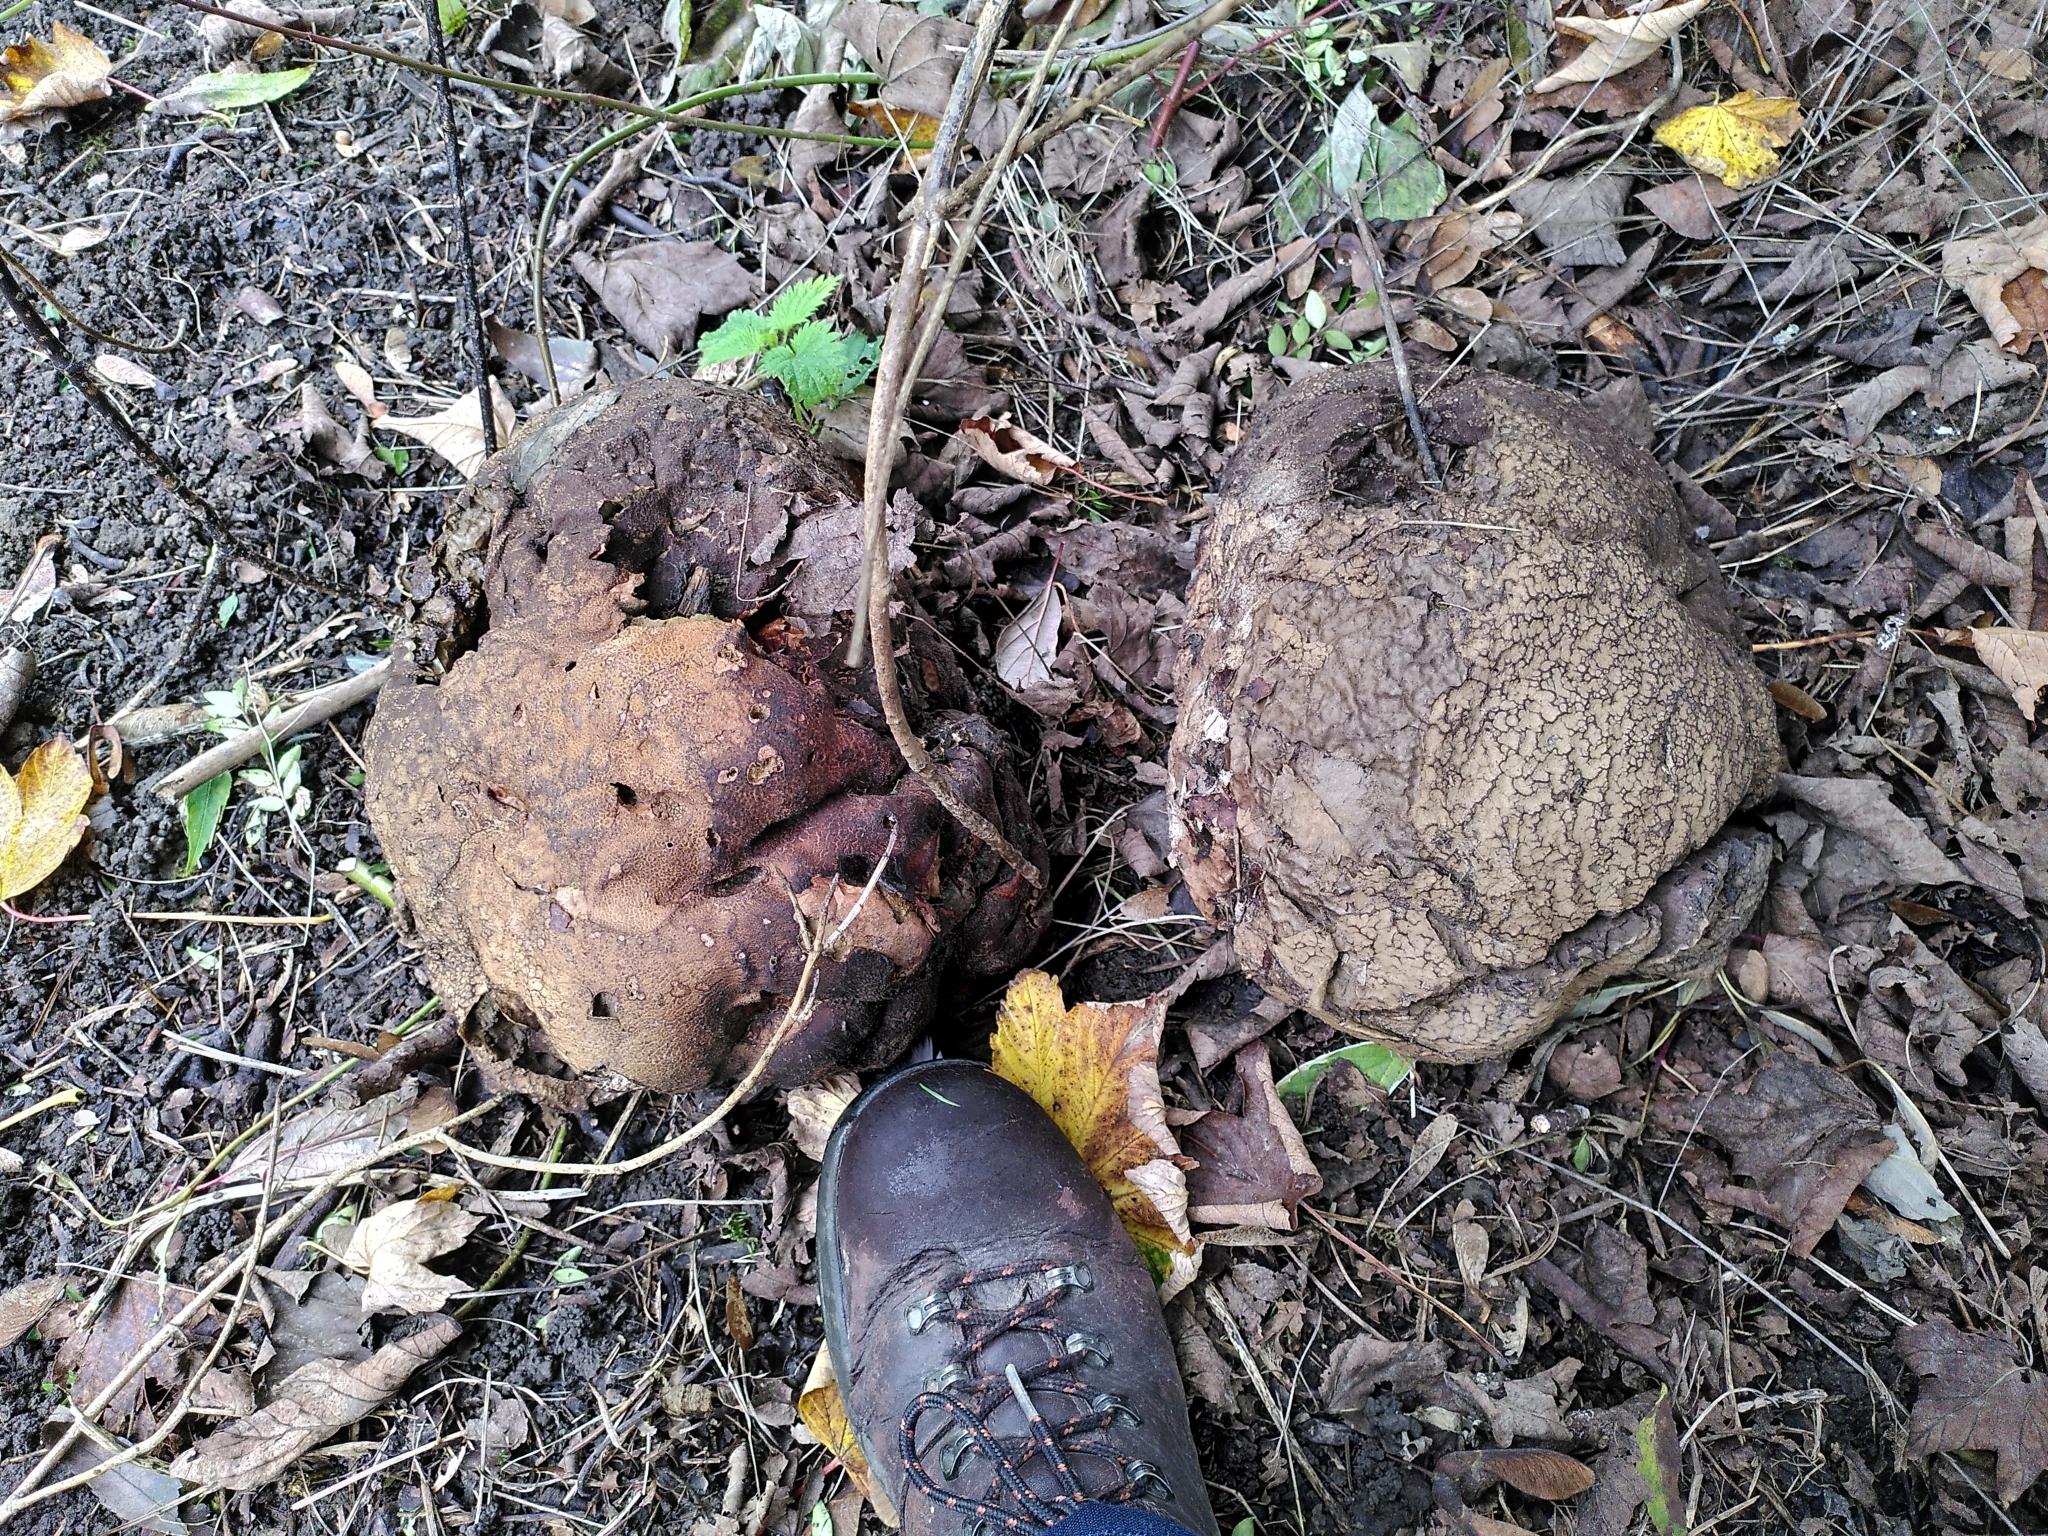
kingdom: Fungi
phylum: Basidiomycota
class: Agaricomycetes
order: Agaricales
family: Lycoperdaceae
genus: Calvatia
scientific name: Calvatia gigantea
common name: Giant puffball
